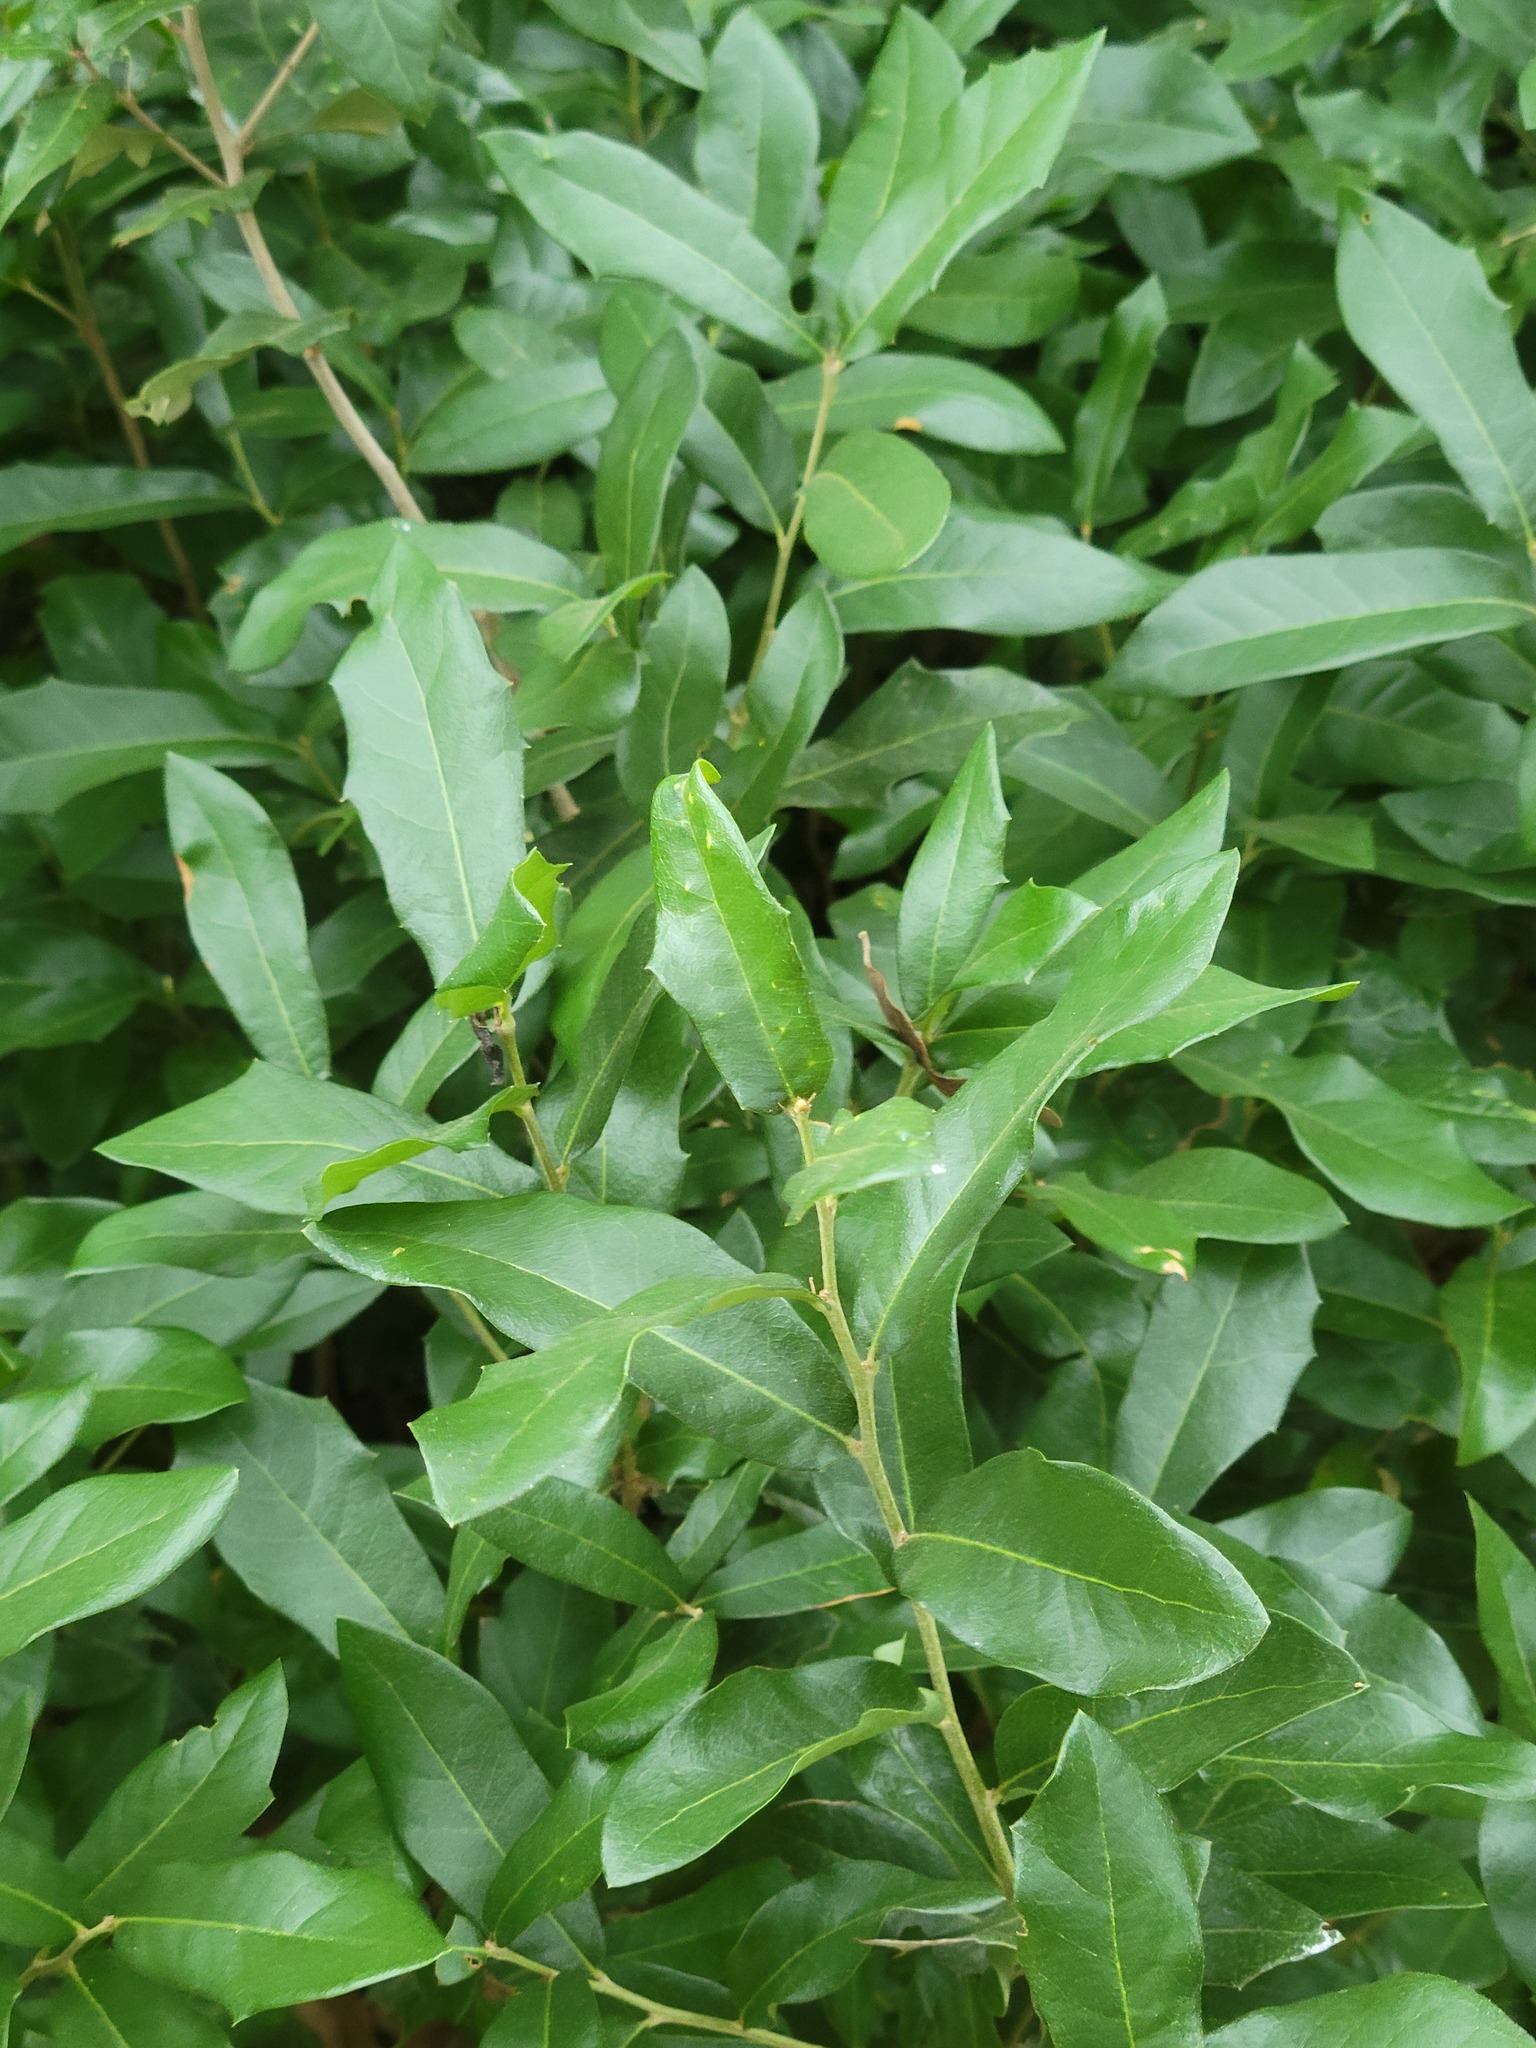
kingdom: Plantae
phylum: Tracheophyta
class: Magnoliopsida
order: Fagales
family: Fagaceae
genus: Quercus
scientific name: Quercus fusiformis
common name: Texas live oak
